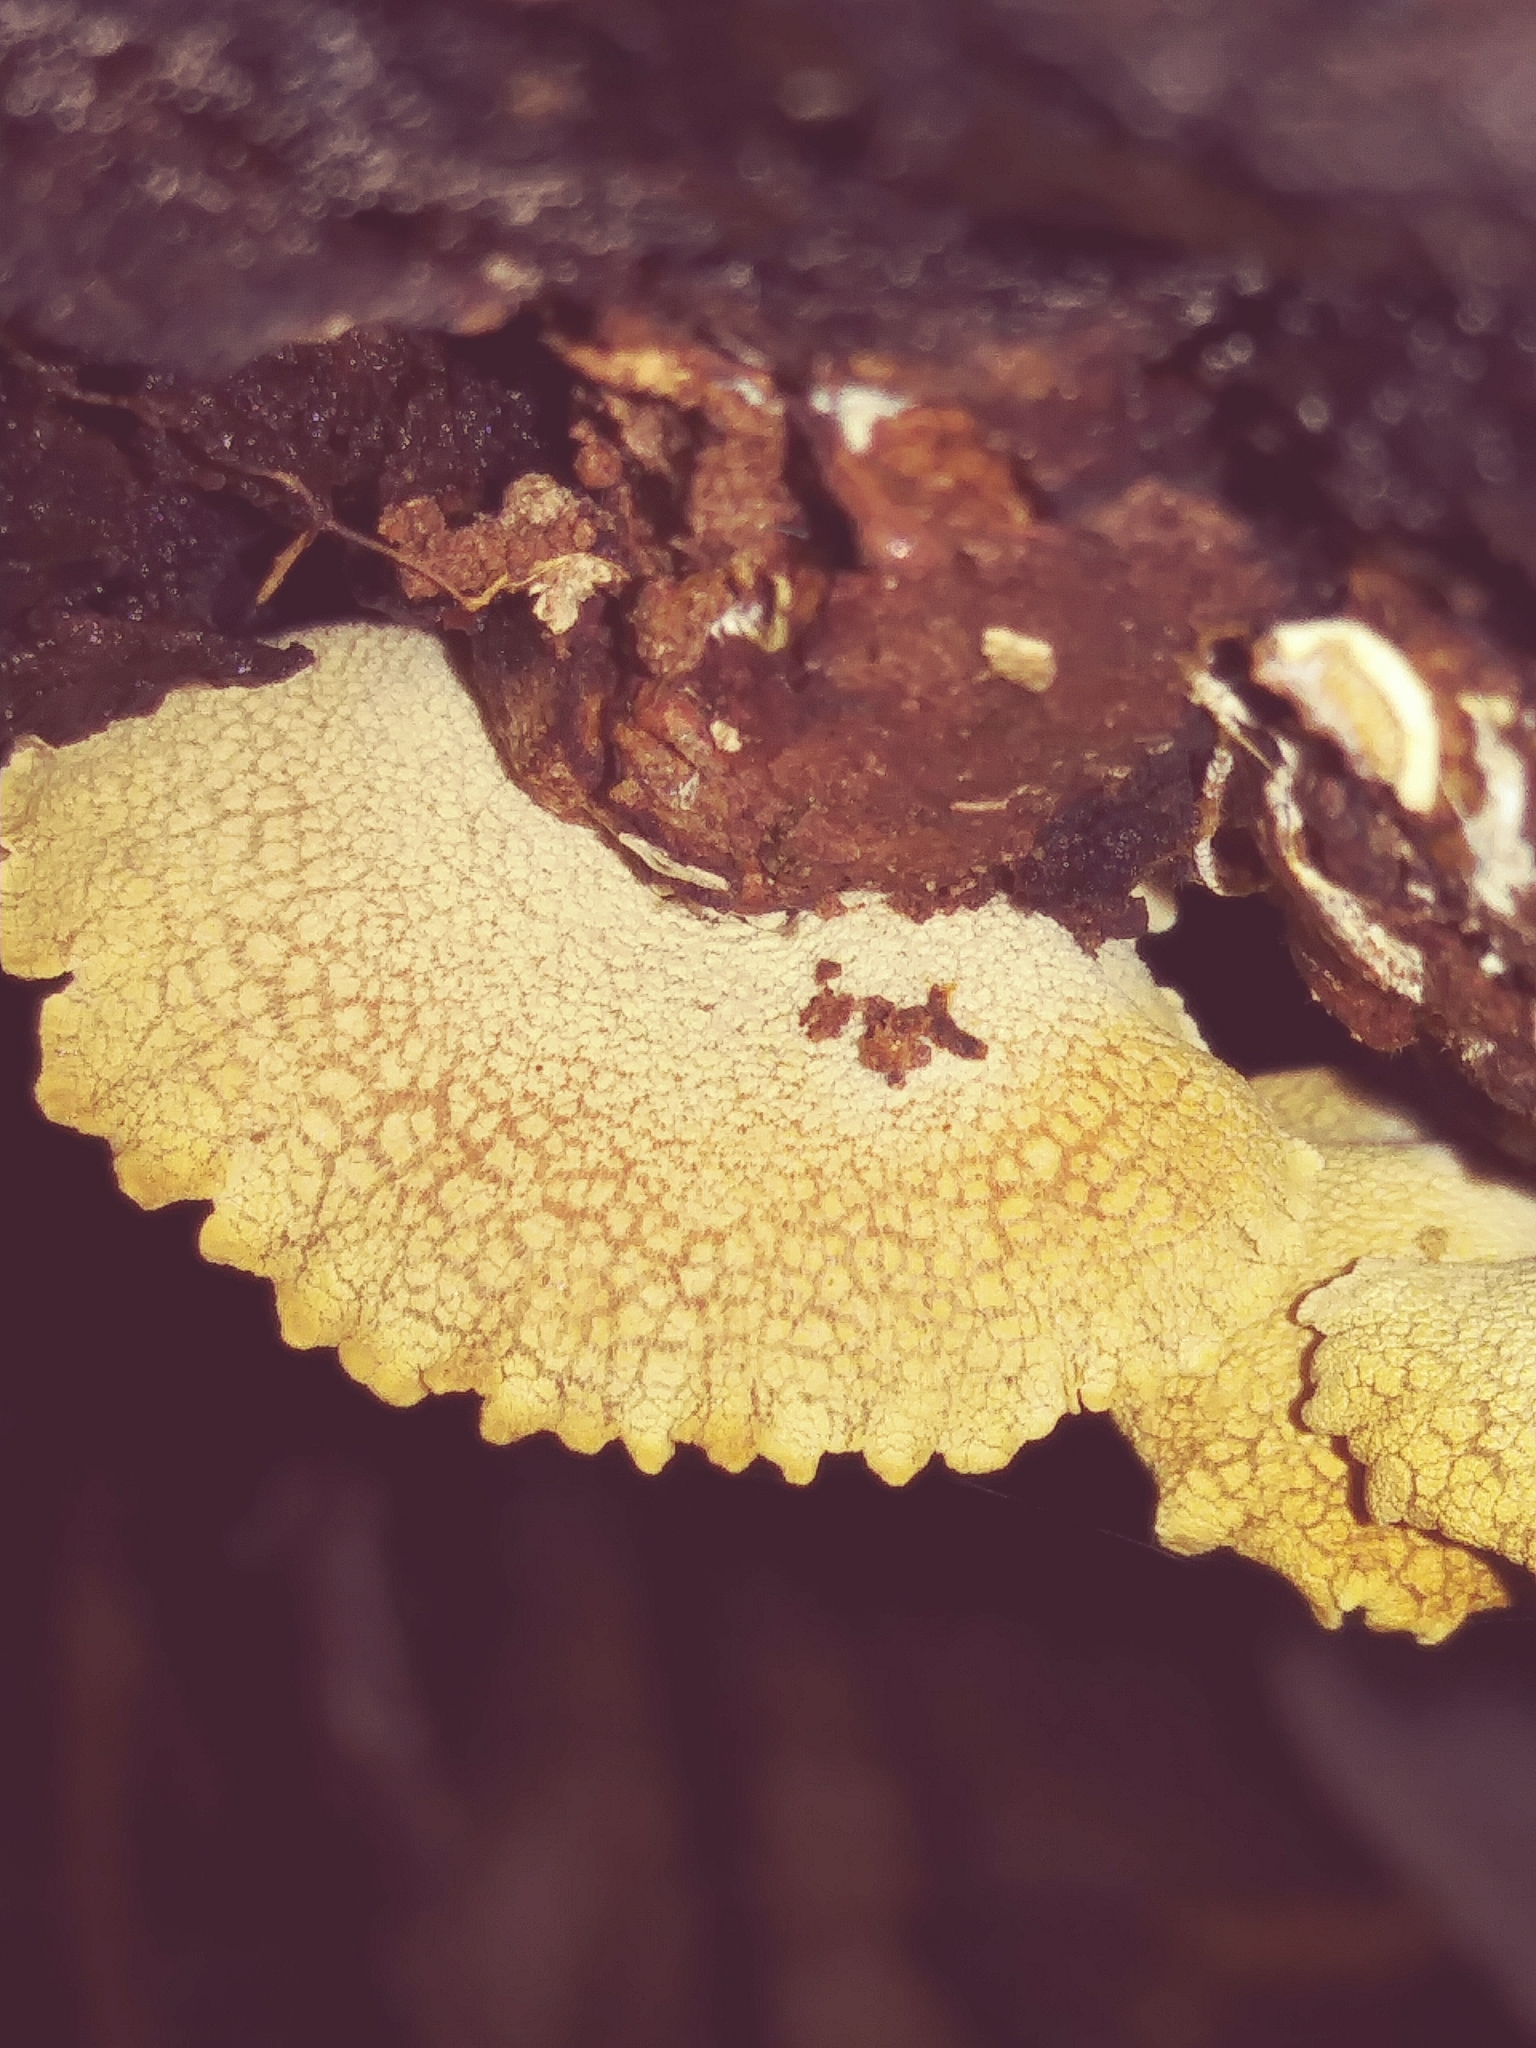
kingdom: Fungi
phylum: Basidiomycota
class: Agaricomycetes
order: Agaricales
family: Mycenaceae
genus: Panellus
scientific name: Panellus stipticus
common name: Bitter oysterling
